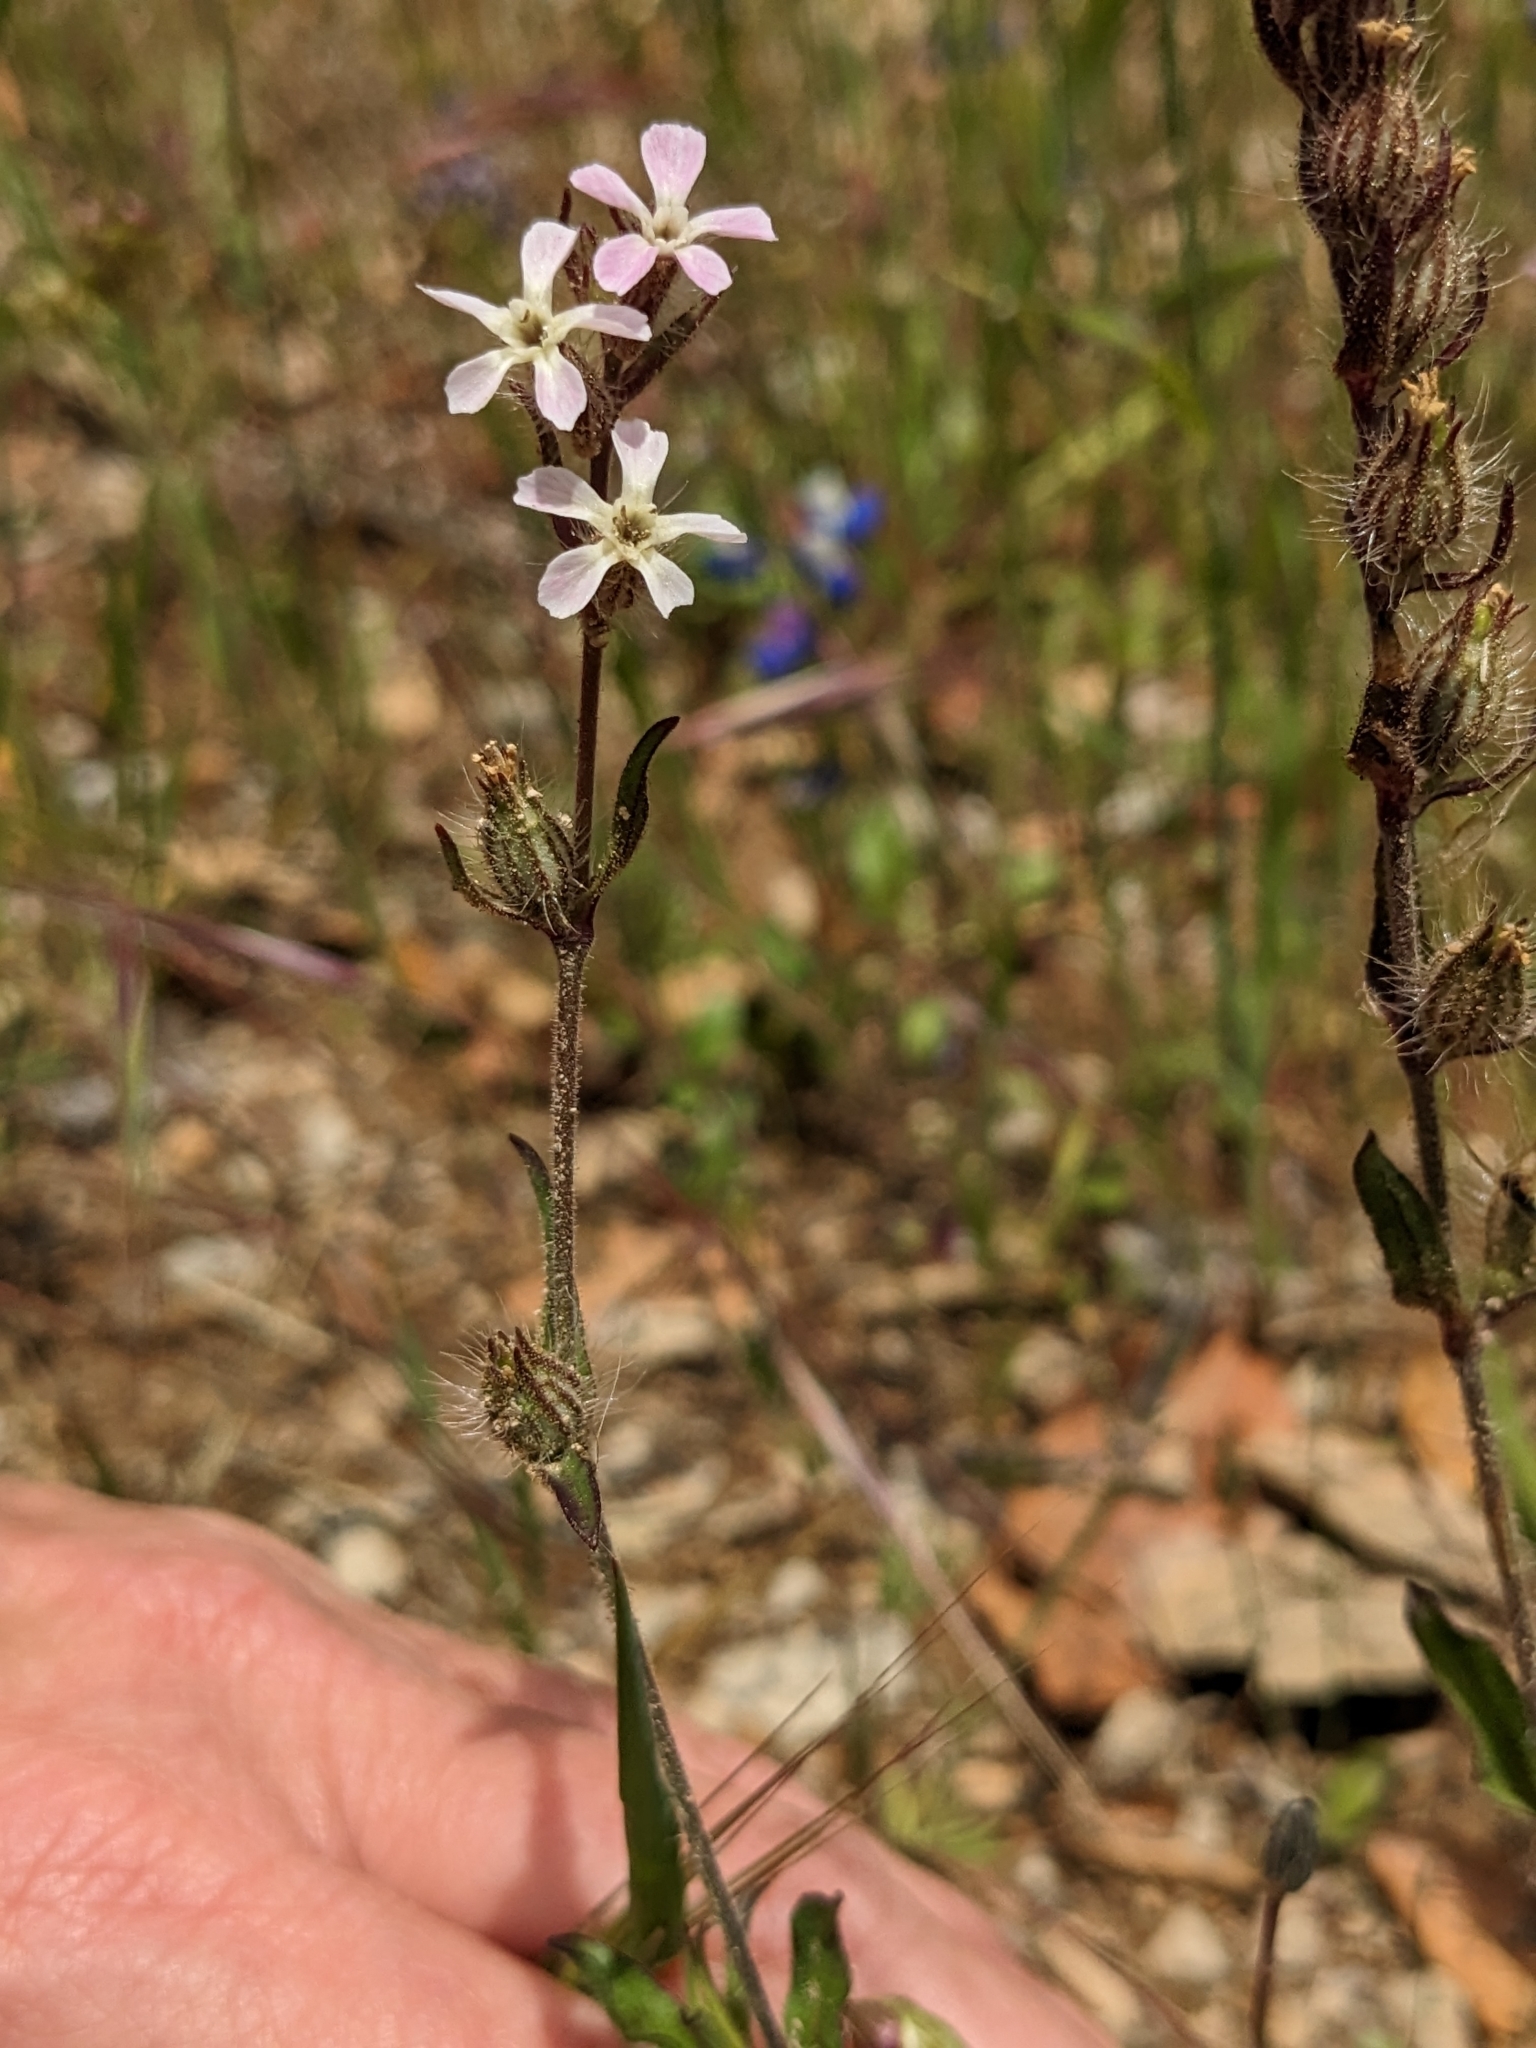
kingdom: Plantae
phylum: Tracheophyta
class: Magnoliopsida
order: Caryophyllales
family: Caryophyllaceae
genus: Silene
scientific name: Silene gallica
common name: Small-flowered catchfly
